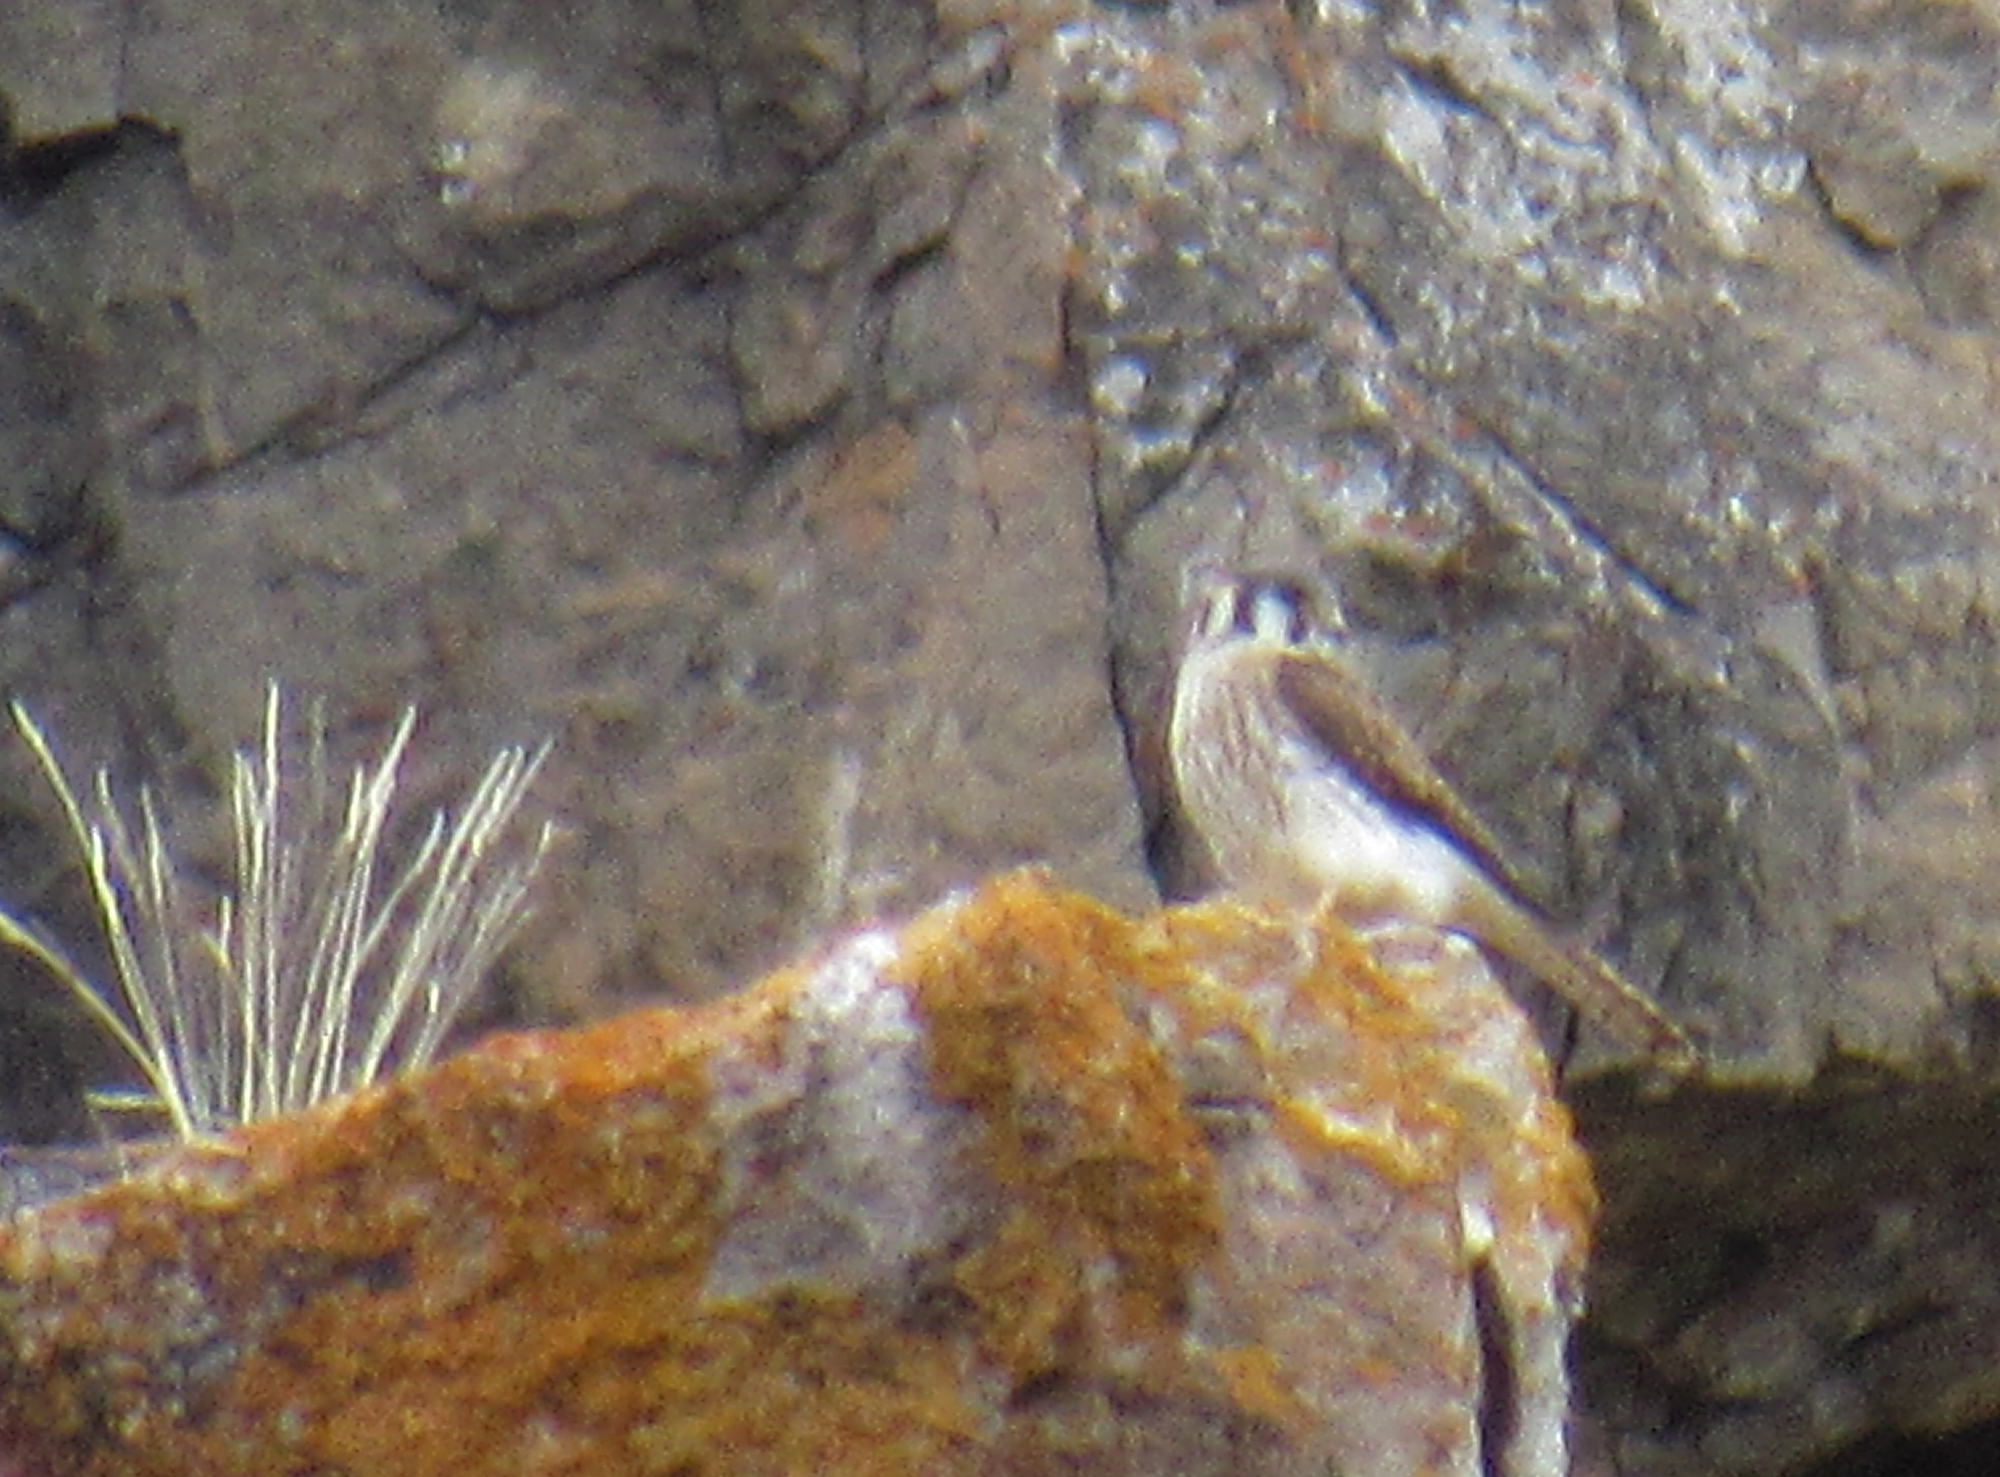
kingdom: Animalia
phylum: Chordata
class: Aves
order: Falconiformes
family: Falconidae
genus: Falco
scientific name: Falco sparverius
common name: American kestrel
